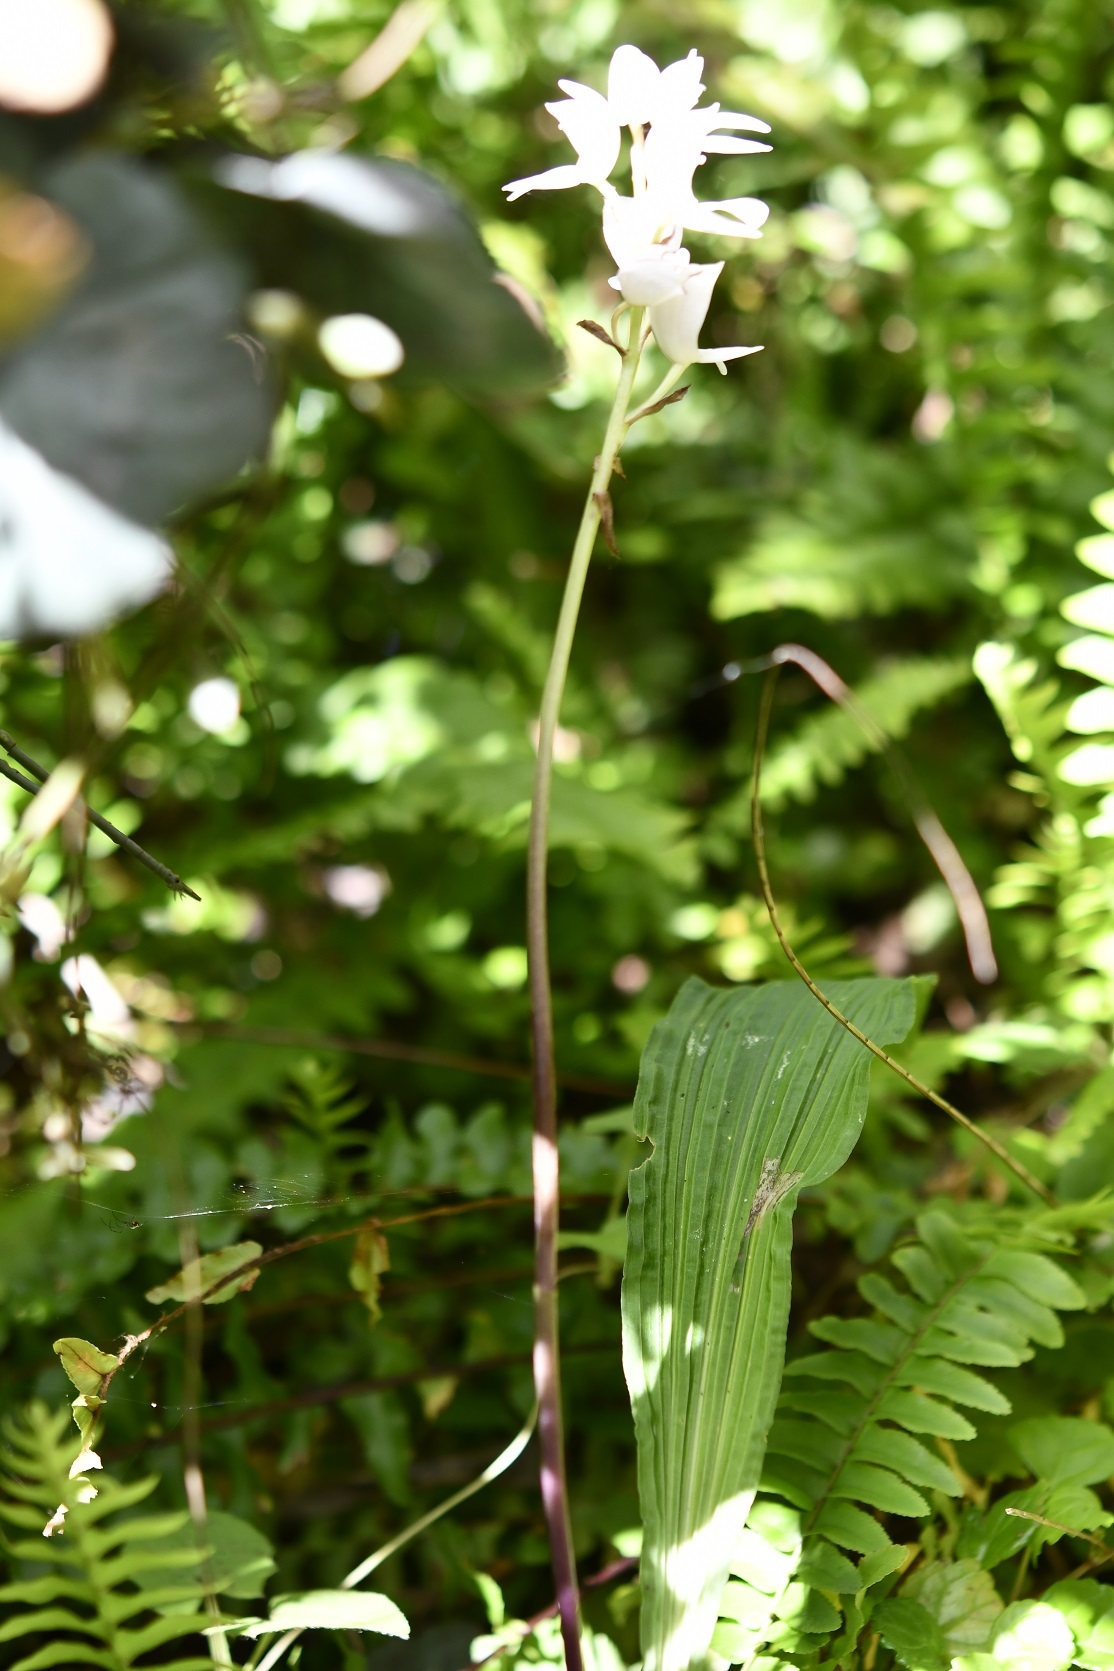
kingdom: Plantae
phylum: Tracheophyta
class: Liliopsida
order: Asparagales
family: Orchidaceae
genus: Govenia
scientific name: Govenia liliacea
